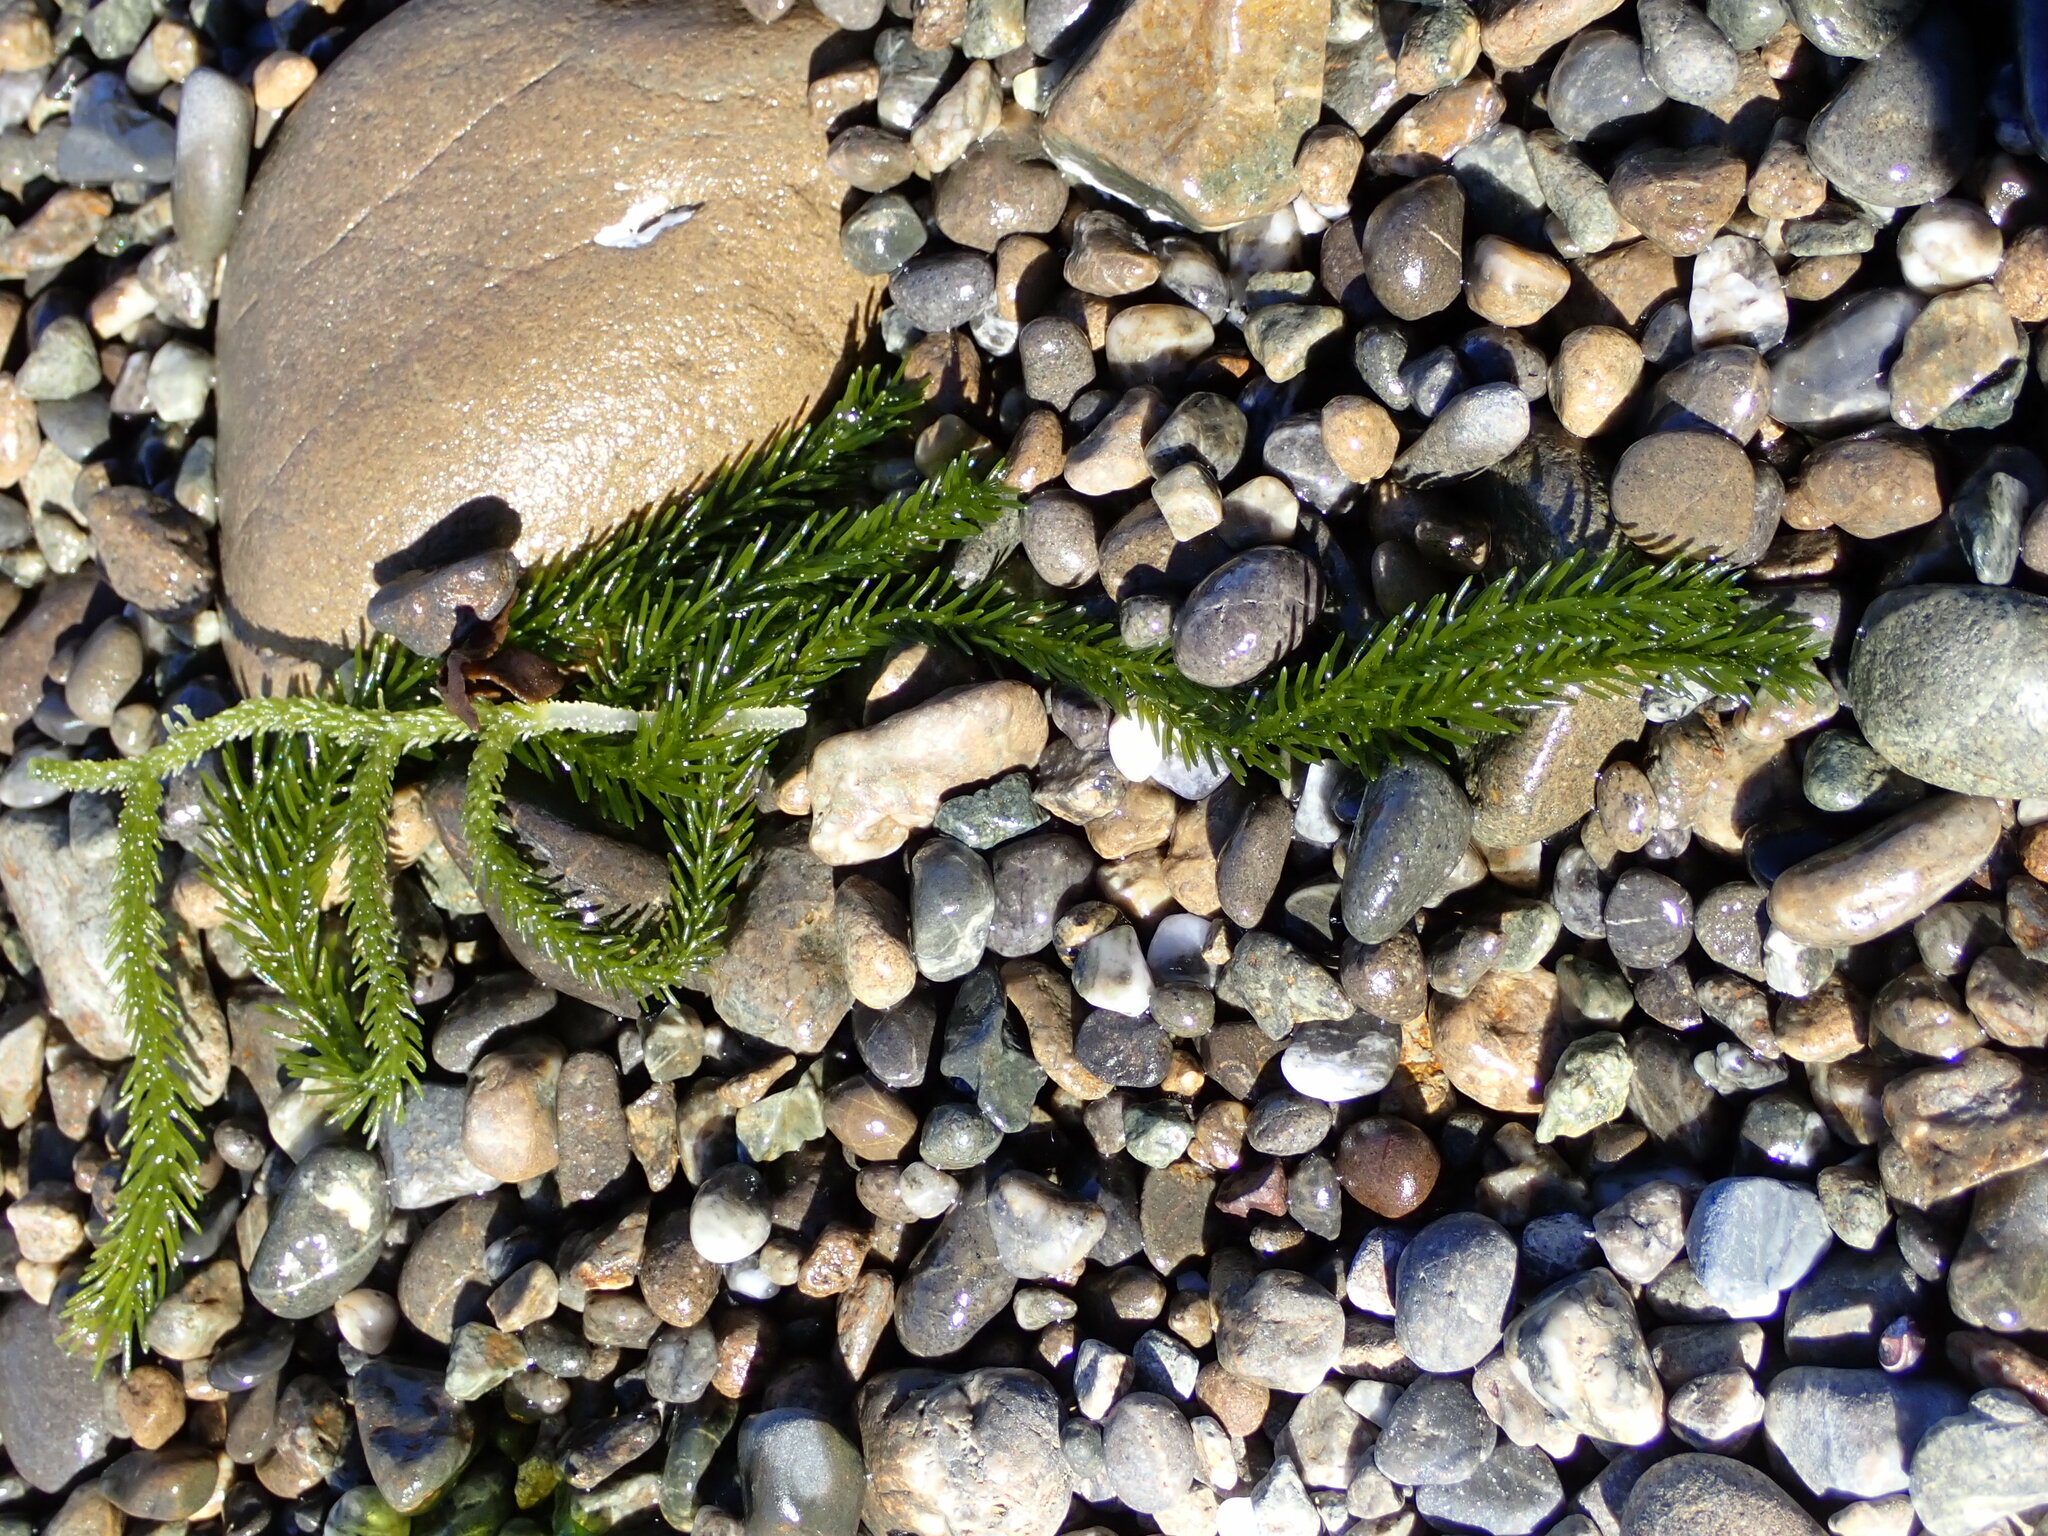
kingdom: Plantae
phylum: Chlorophyta
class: Ulvophyceae
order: Bryopsidales
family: Caulerpaceae
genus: Caulerpa
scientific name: Caulerpa brownii
